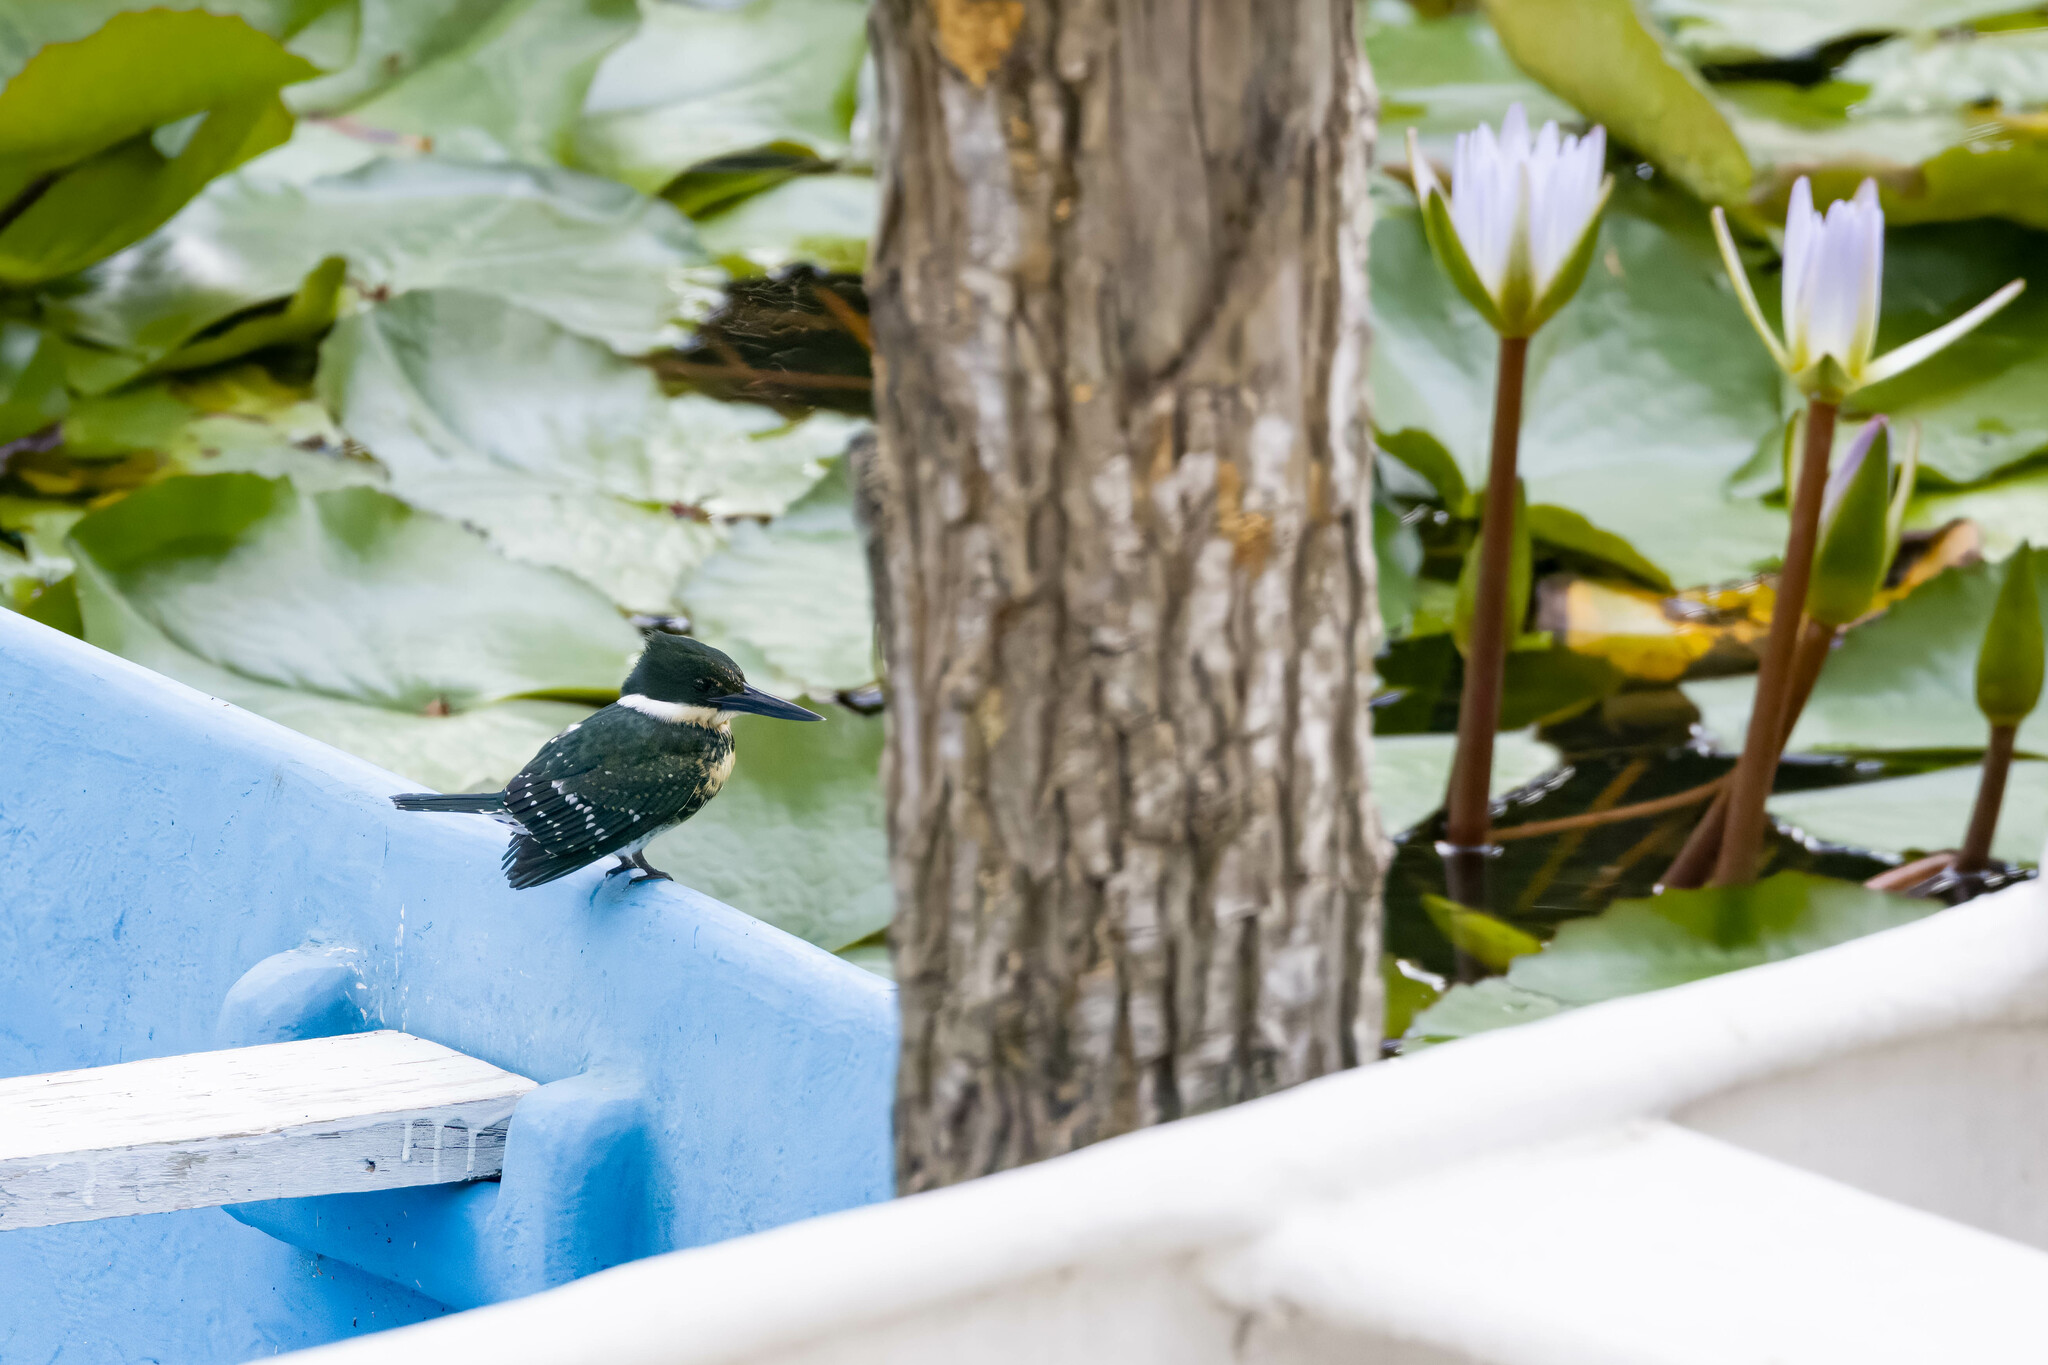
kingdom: Animalia
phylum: Chordata
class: Aves
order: Coraciiformes
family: Alcedinidae
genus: Chloroceryle
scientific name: Chloroceryle americana
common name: Green kingfisher
